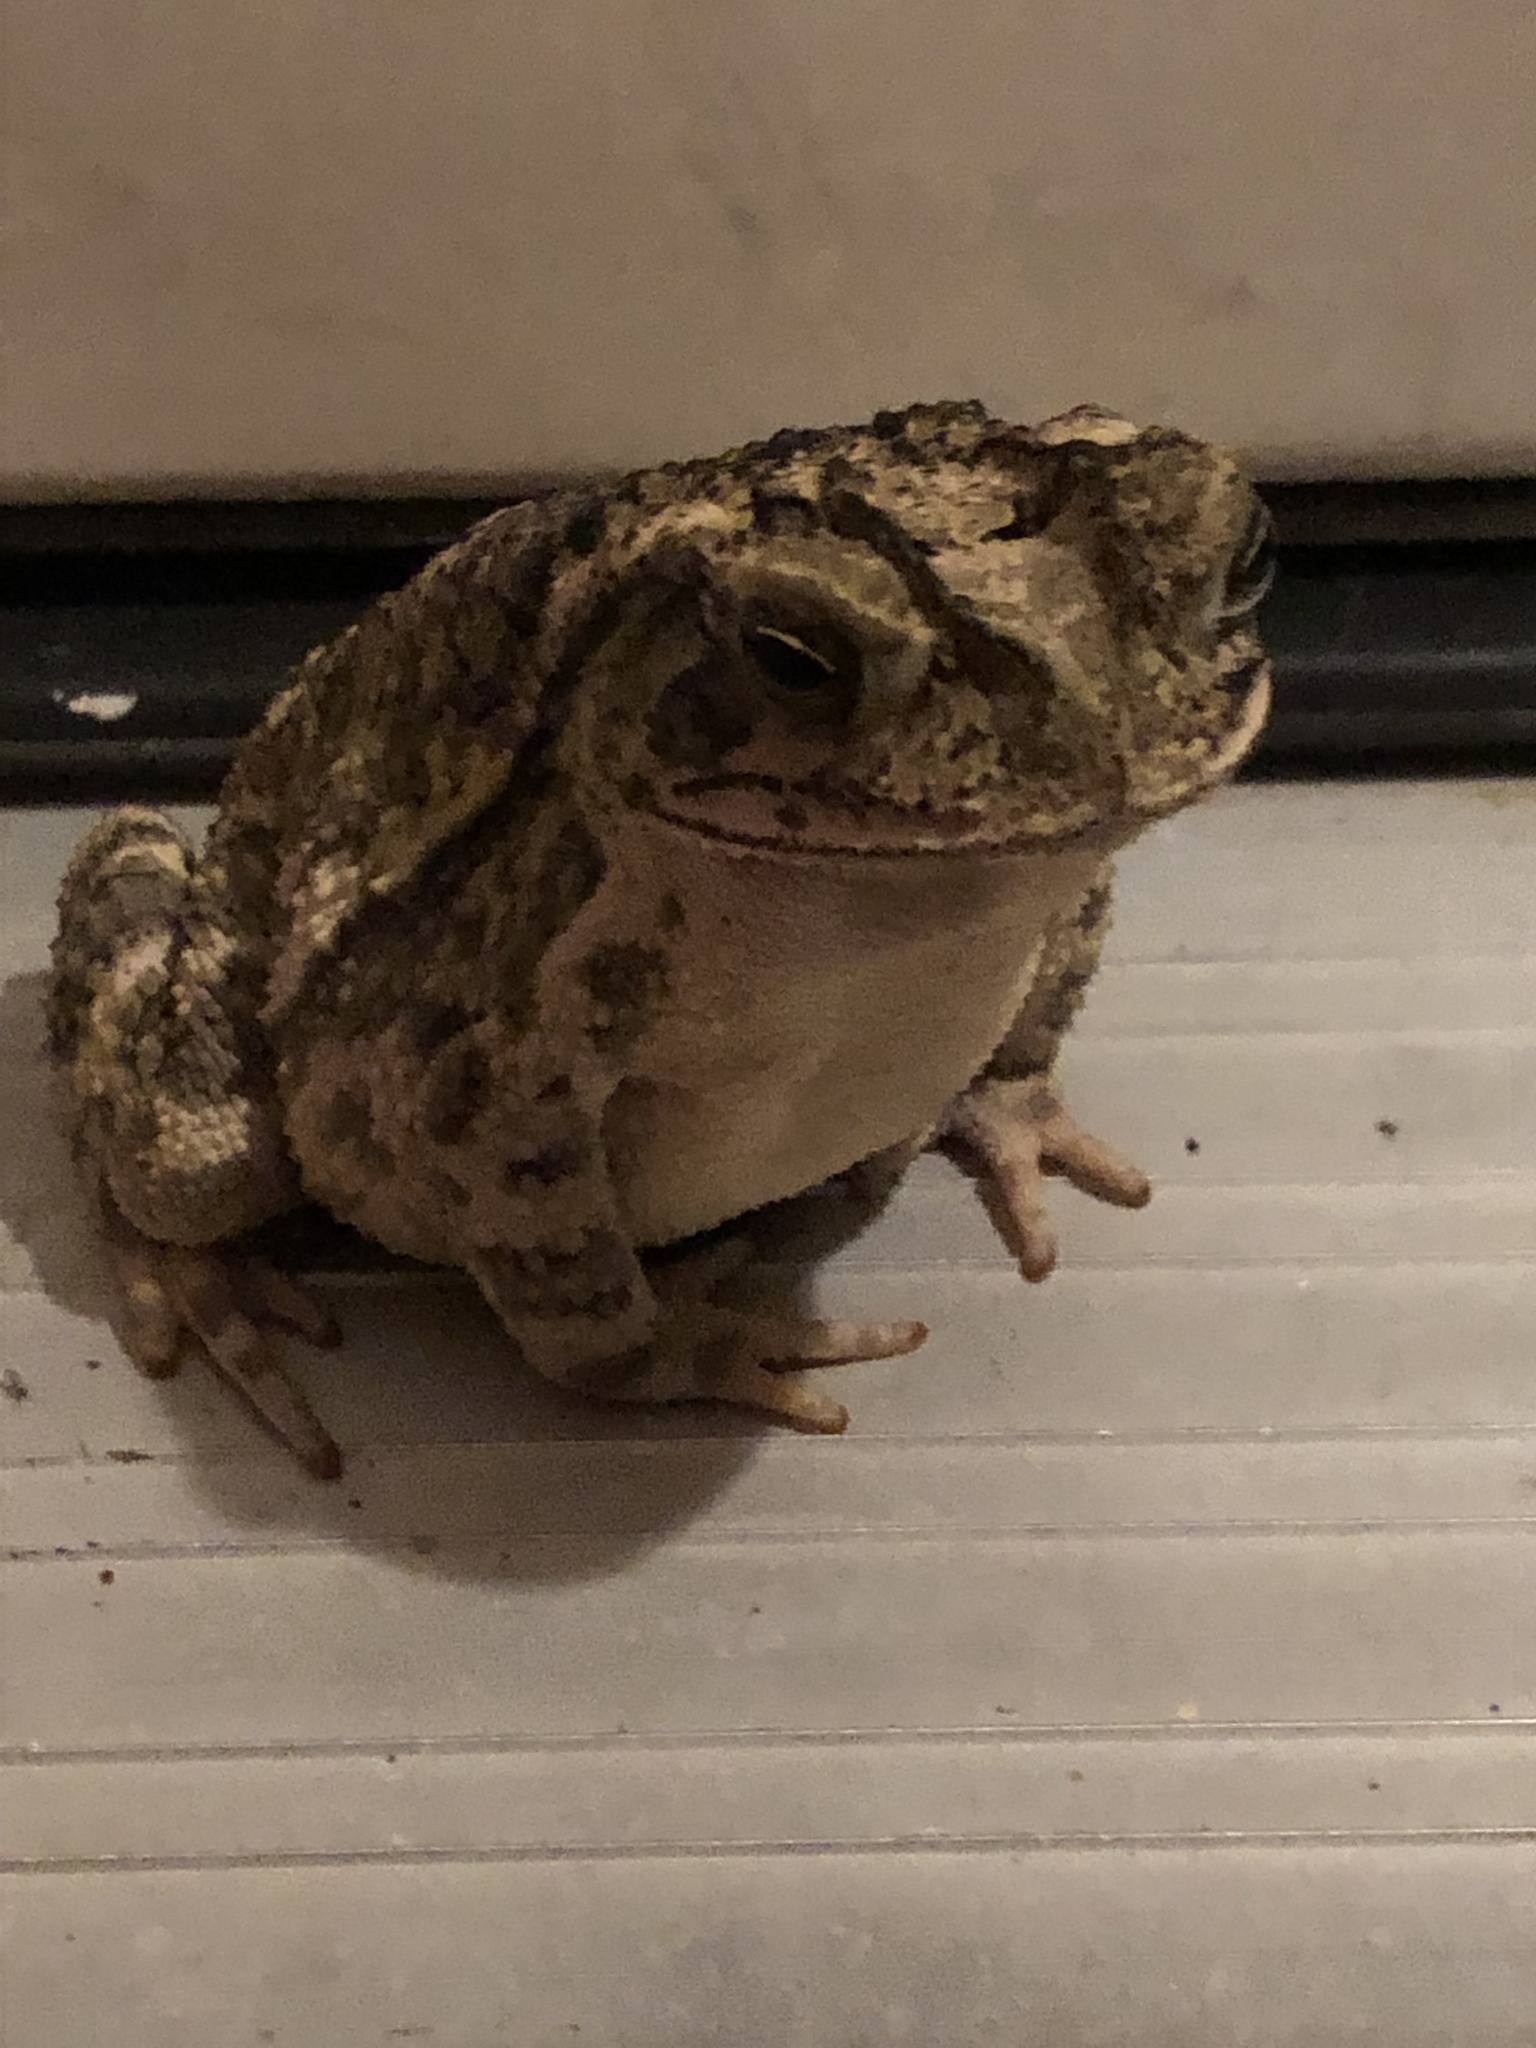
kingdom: Animalia
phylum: Chordata
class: Amphibia
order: Anura
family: Bufonidae
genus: Incilius
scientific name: Incilius nebulifer
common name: Gulf coast toad
